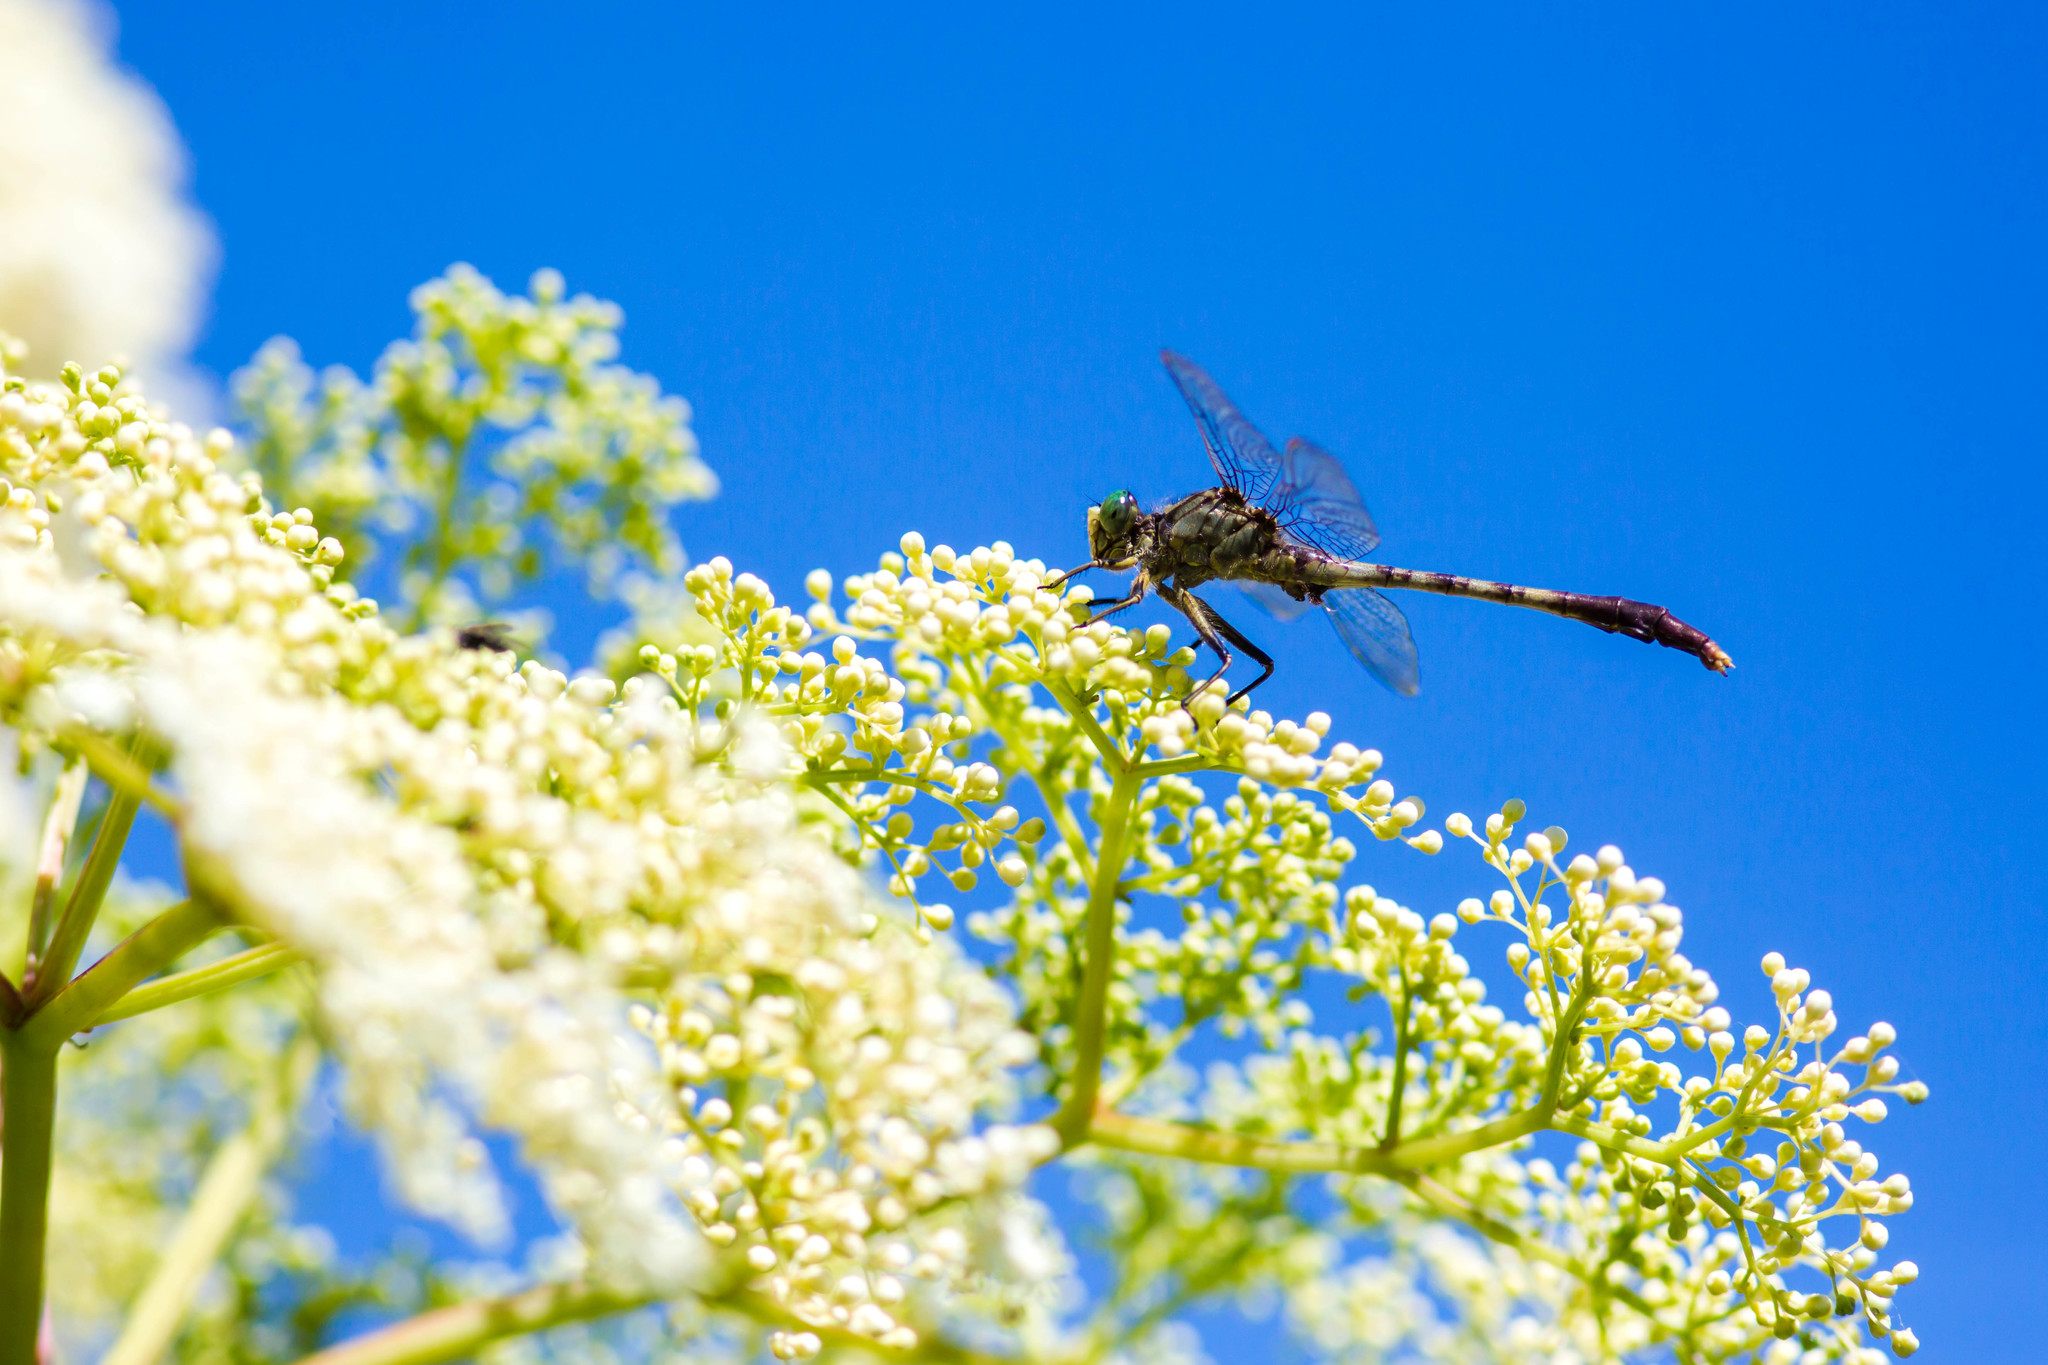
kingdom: Animalia
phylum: Arthropoda
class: Insecta
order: Odonata
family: Gomphidae
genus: Arigomphus
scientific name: Arigomphus submedianus
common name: Jade clubtail
